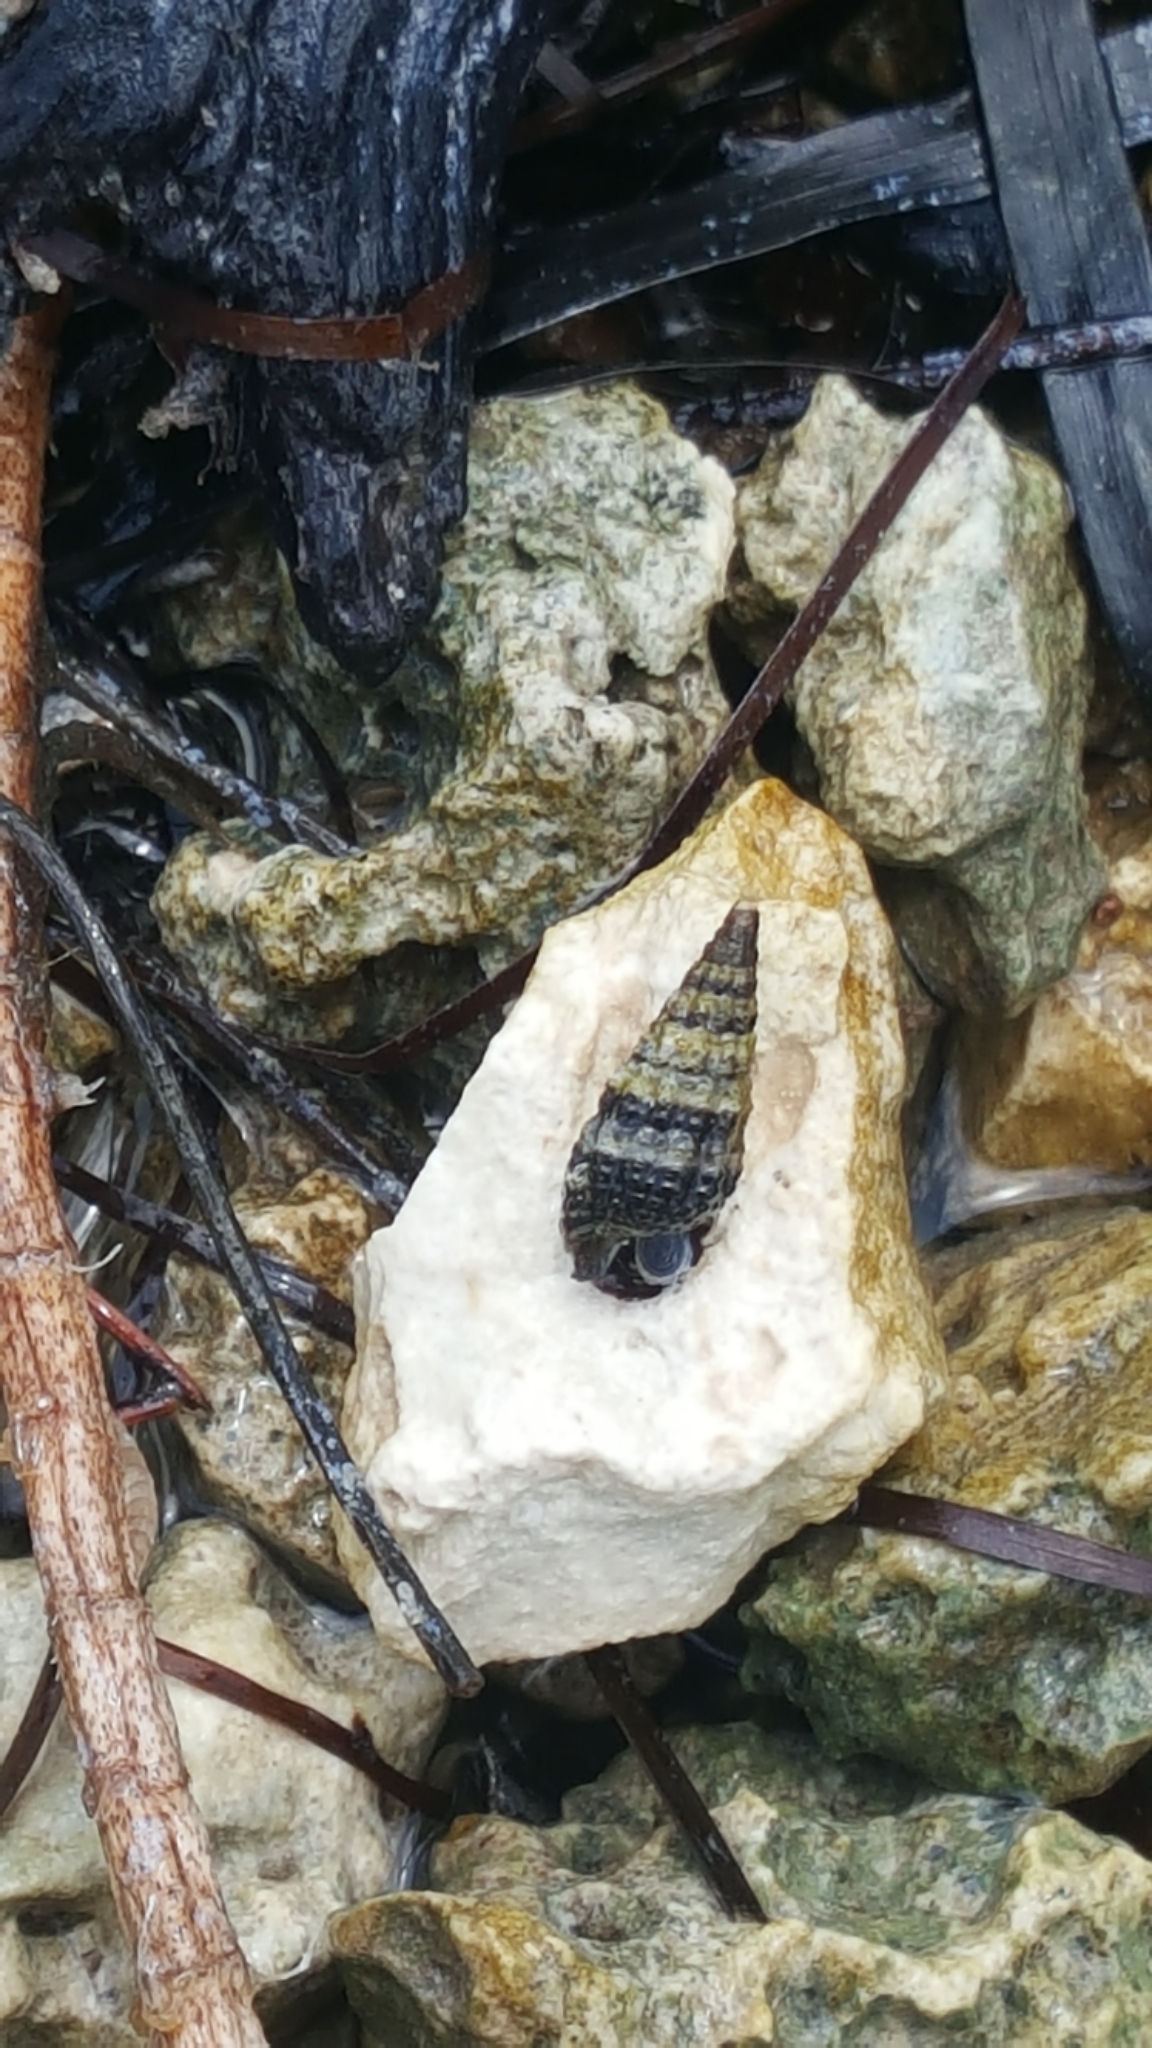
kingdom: Animalia
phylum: Mollusca
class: Gastropoda
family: Batillariidae
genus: Lampanella
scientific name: Lampanella minima
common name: West indian false cerith
